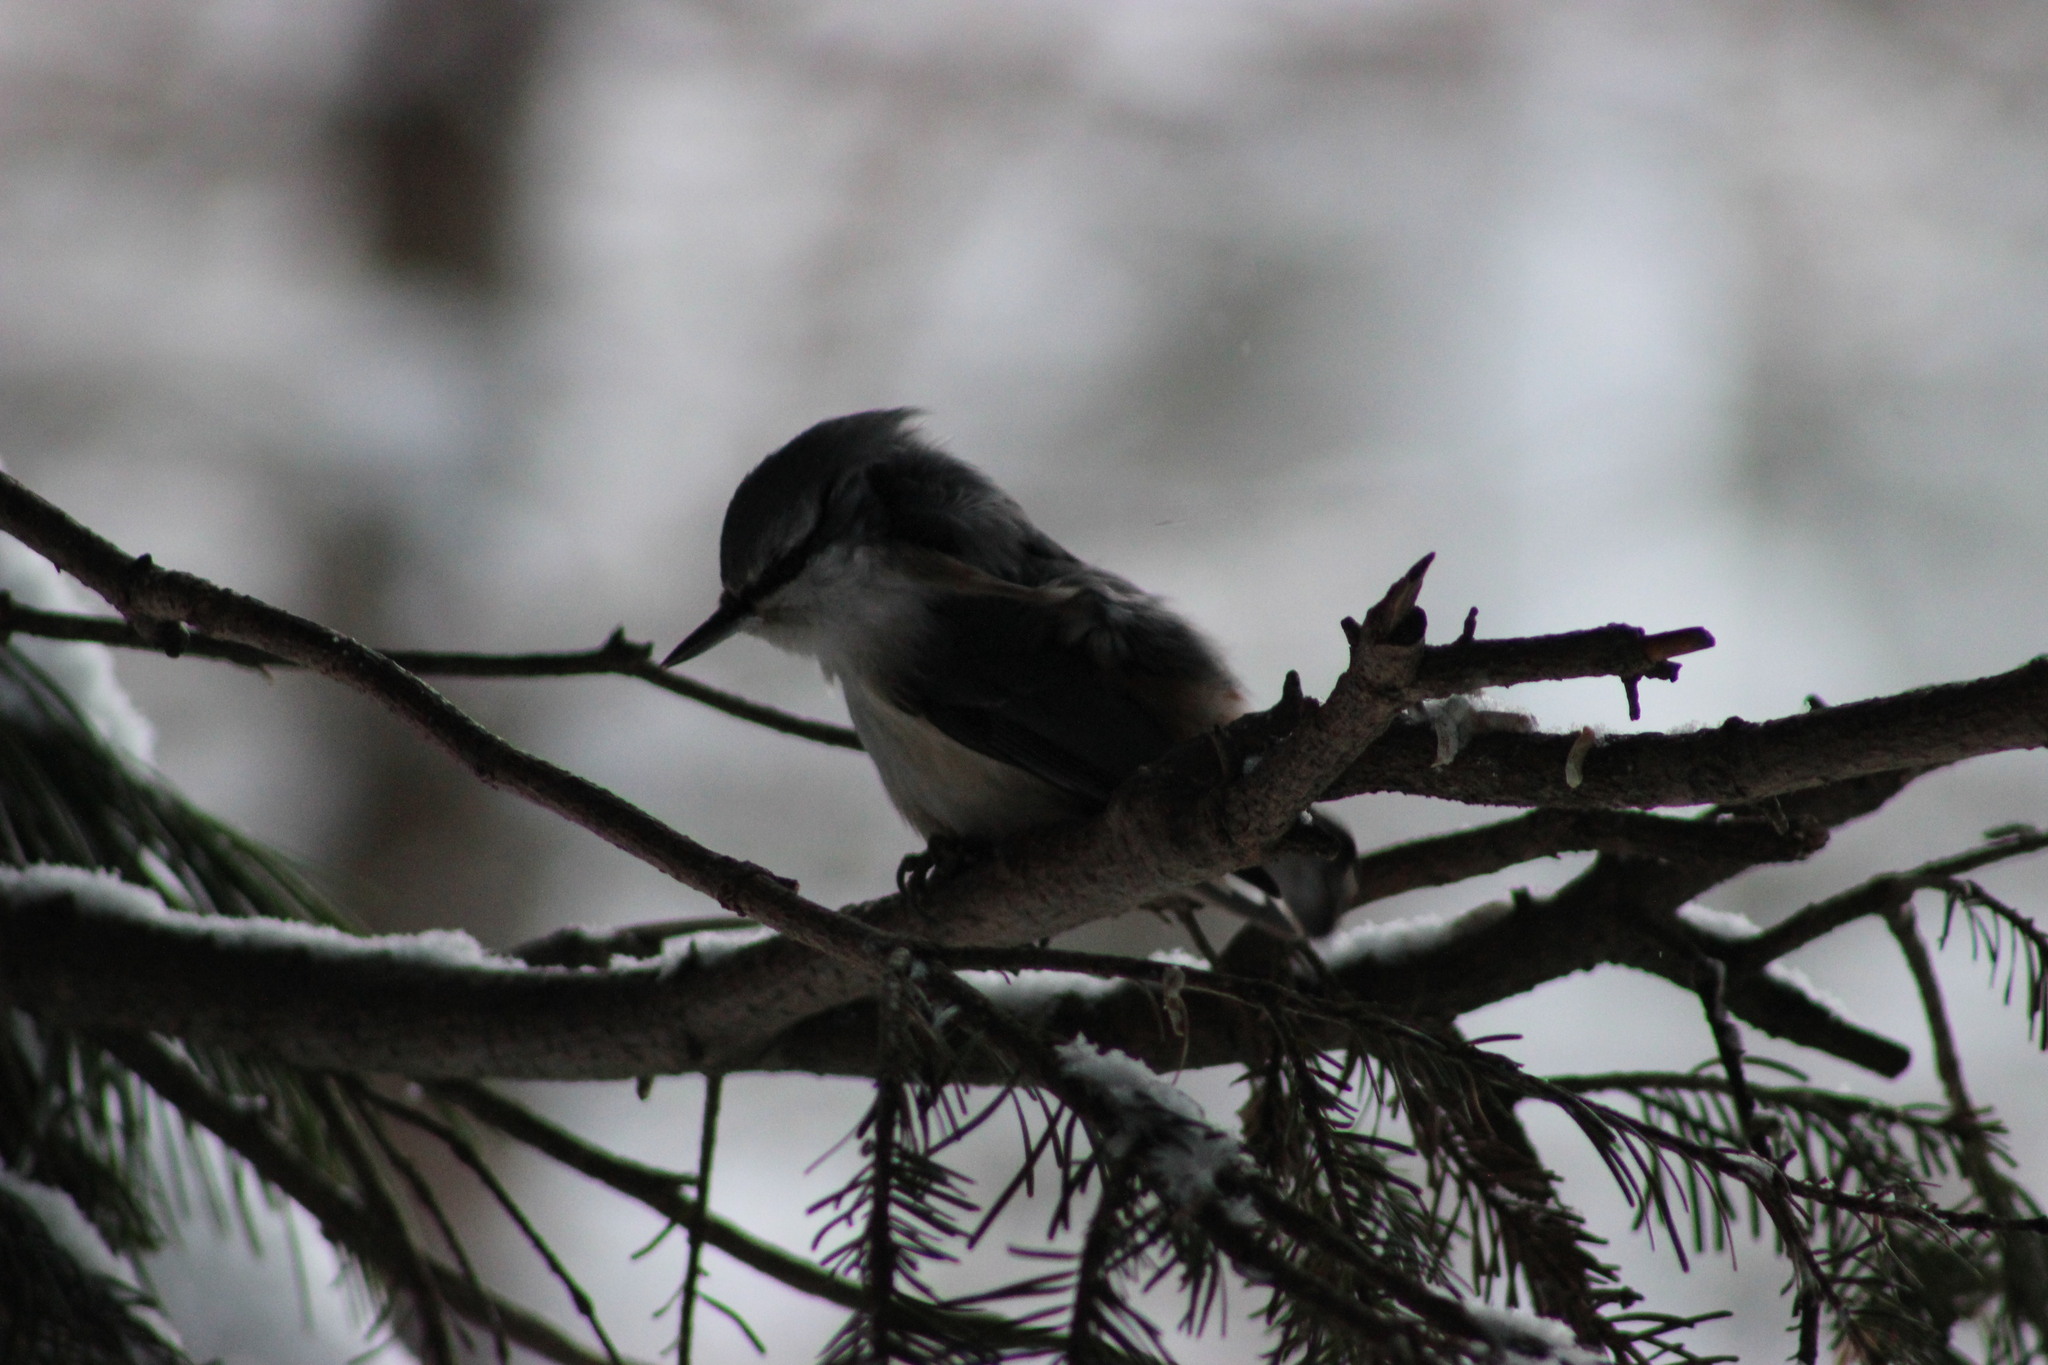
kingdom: Animalia
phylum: Chordata
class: Aves
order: Passeriformes
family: Sittidae
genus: Sitta
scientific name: Sitta europaea
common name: Eurasian nuthatch
